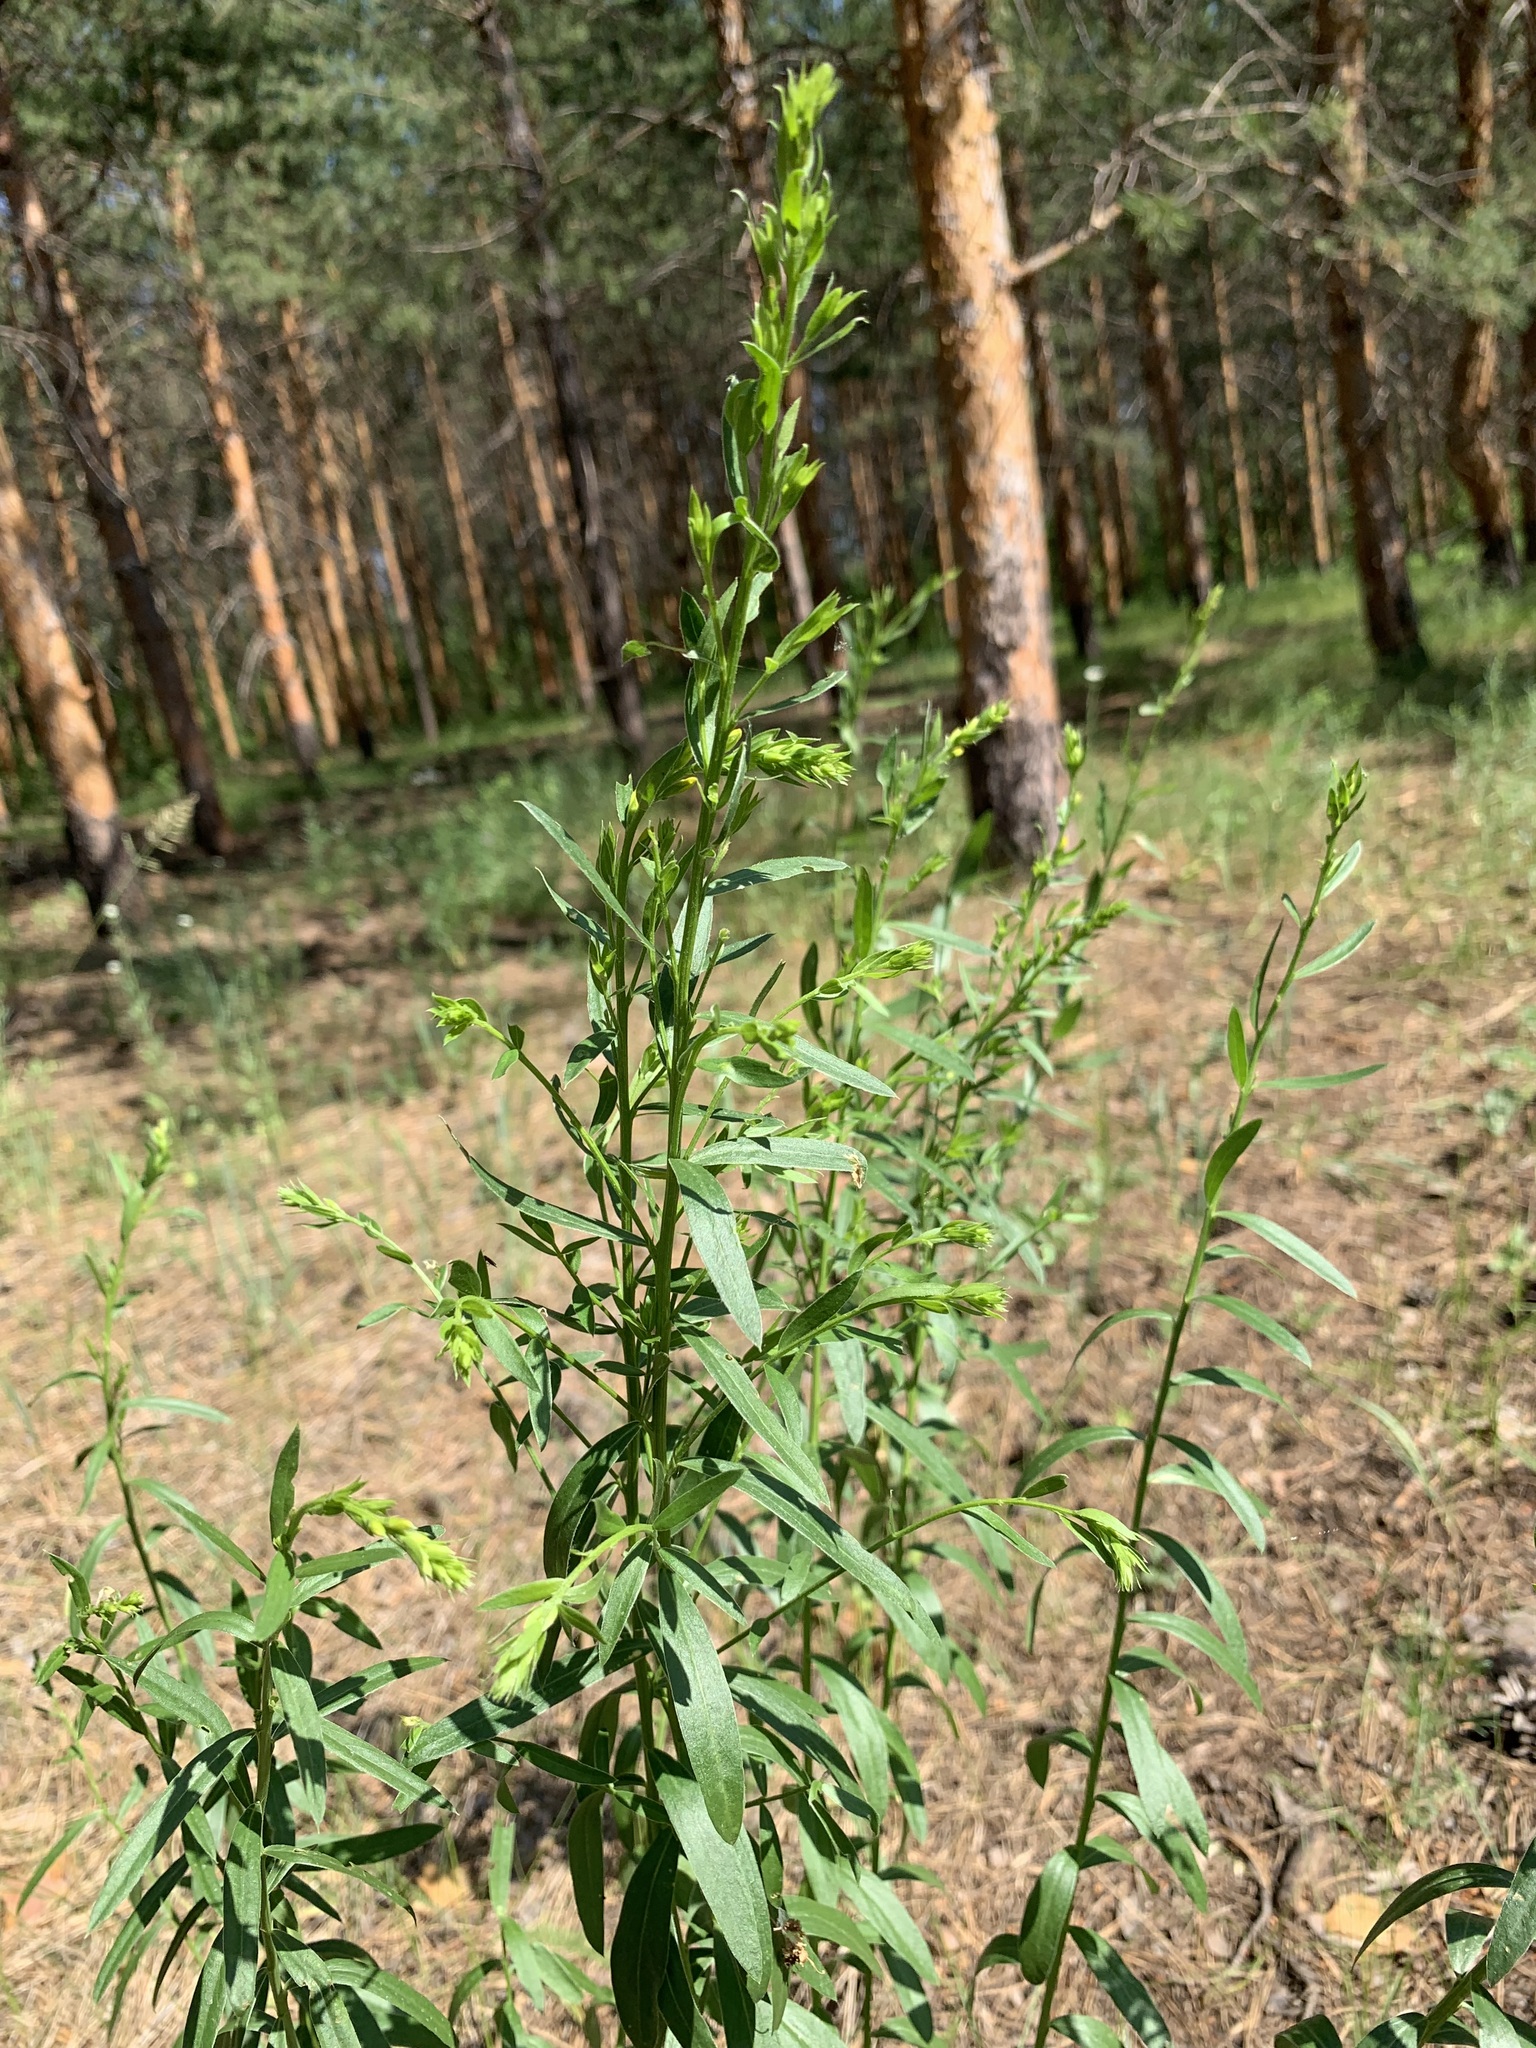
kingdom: Plantae
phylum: Tracheophyta
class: Magnoliopsida
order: Fabales
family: Fabaceae
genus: Genista
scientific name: Genista tinctoria
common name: Dyer's greenweed
